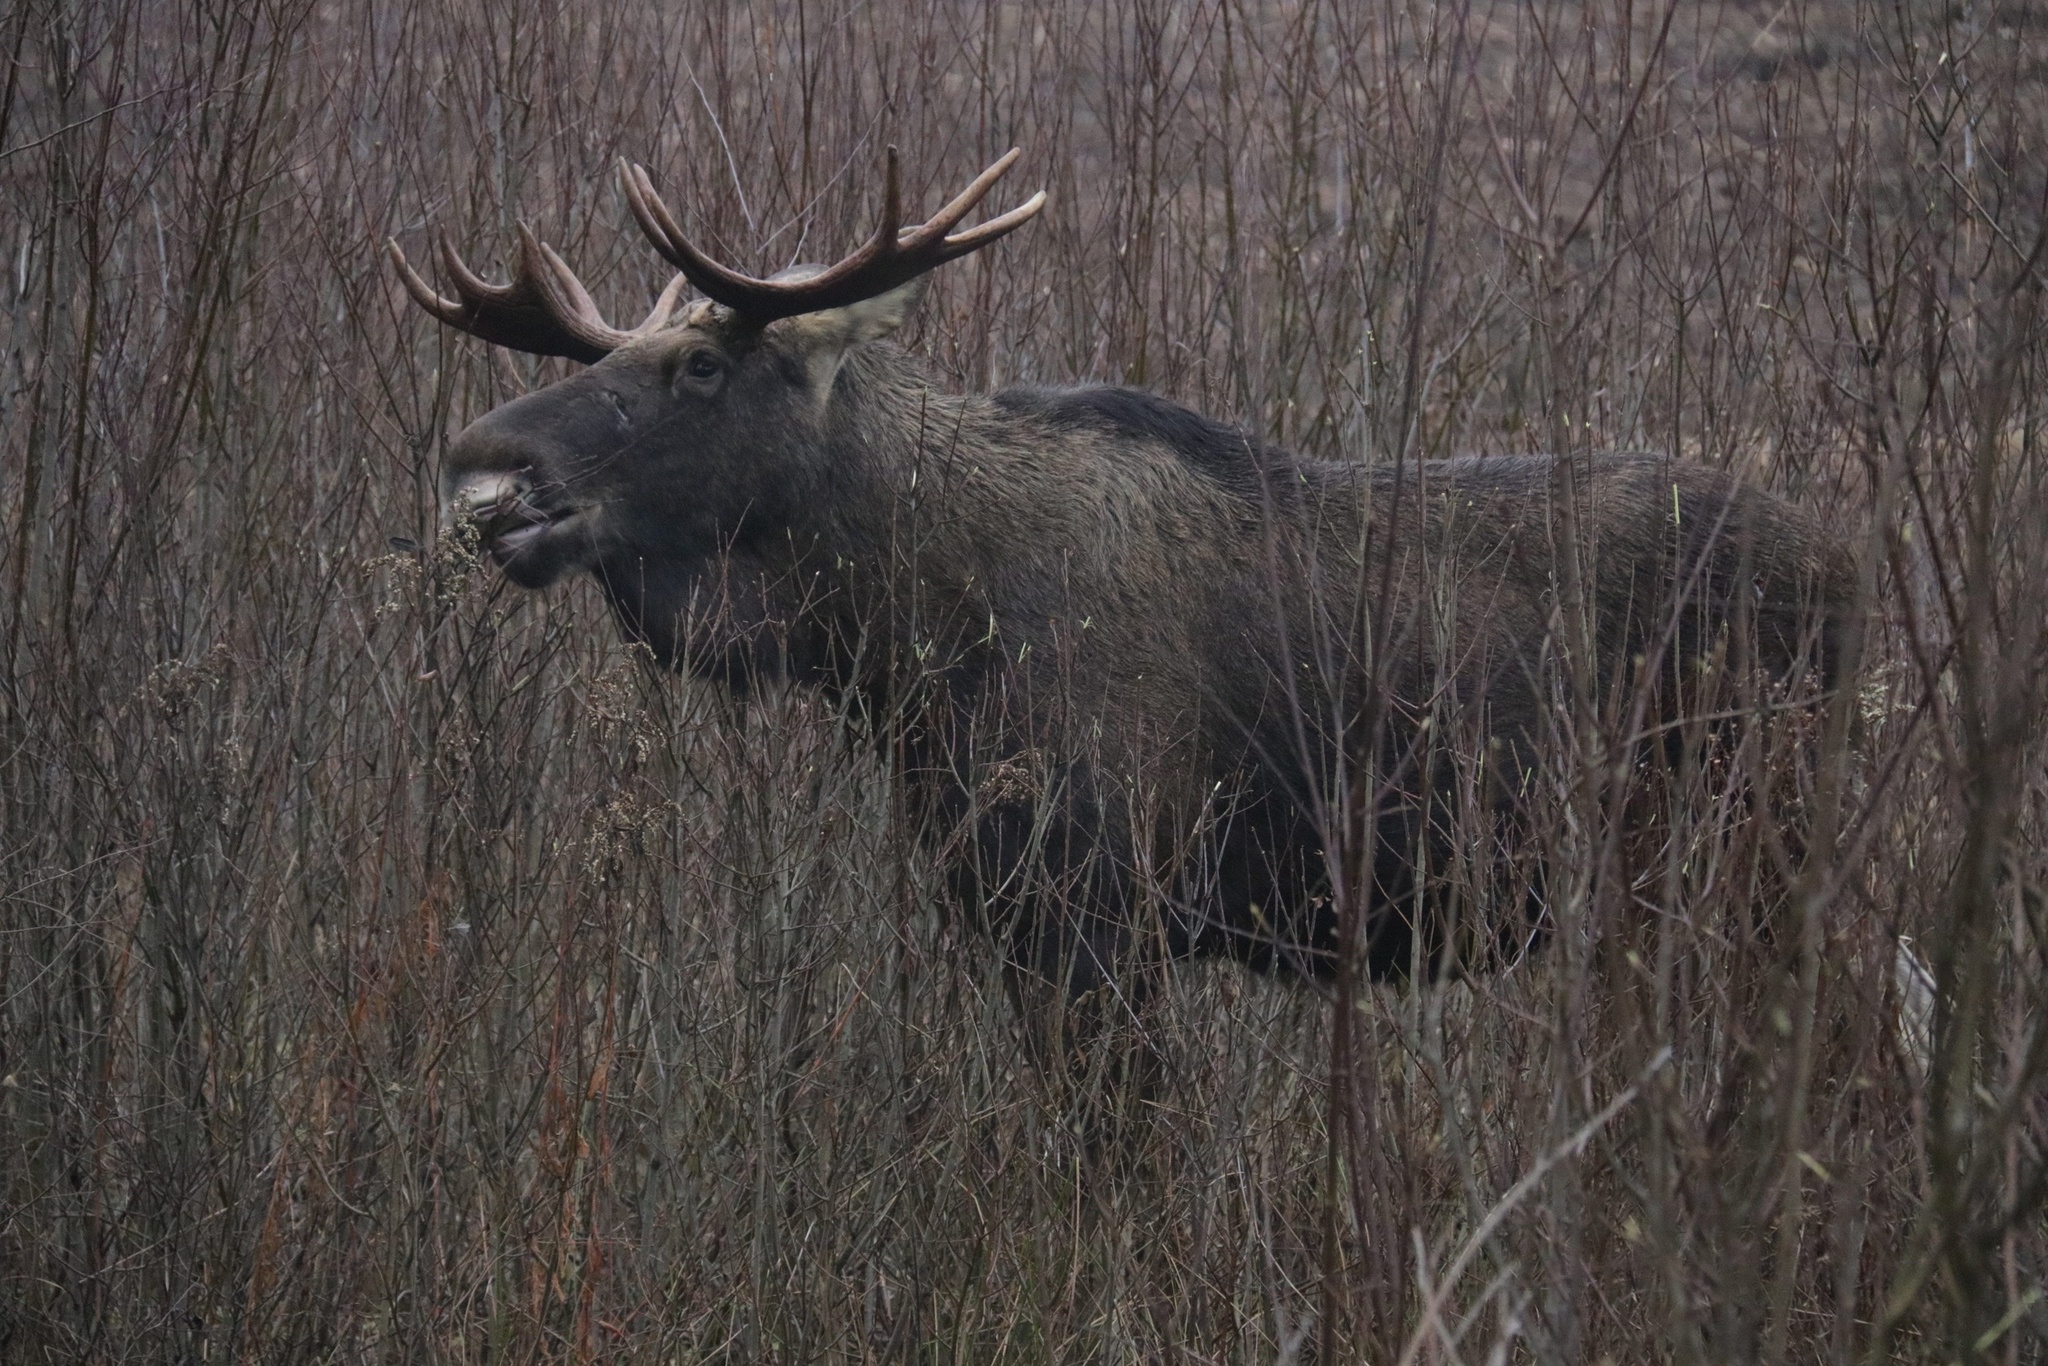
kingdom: Animalia
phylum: Chordata
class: Mammalia
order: Artiodactyla
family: Cervidae
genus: Alces
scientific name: Alces alces
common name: Moose
